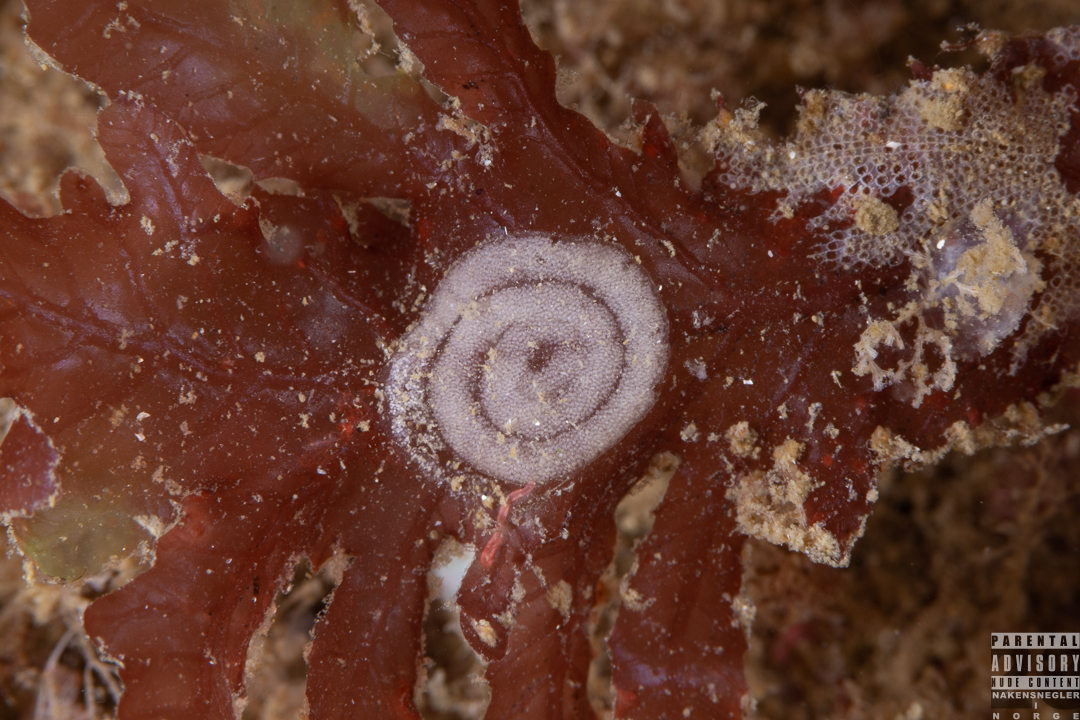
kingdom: Animalia
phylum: Mollusca
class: Gastropoda
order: Nudibranchia
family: Polyceridae
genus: Limacia
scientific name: Limacia clavigera
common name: Orange-clubbed sea slug
